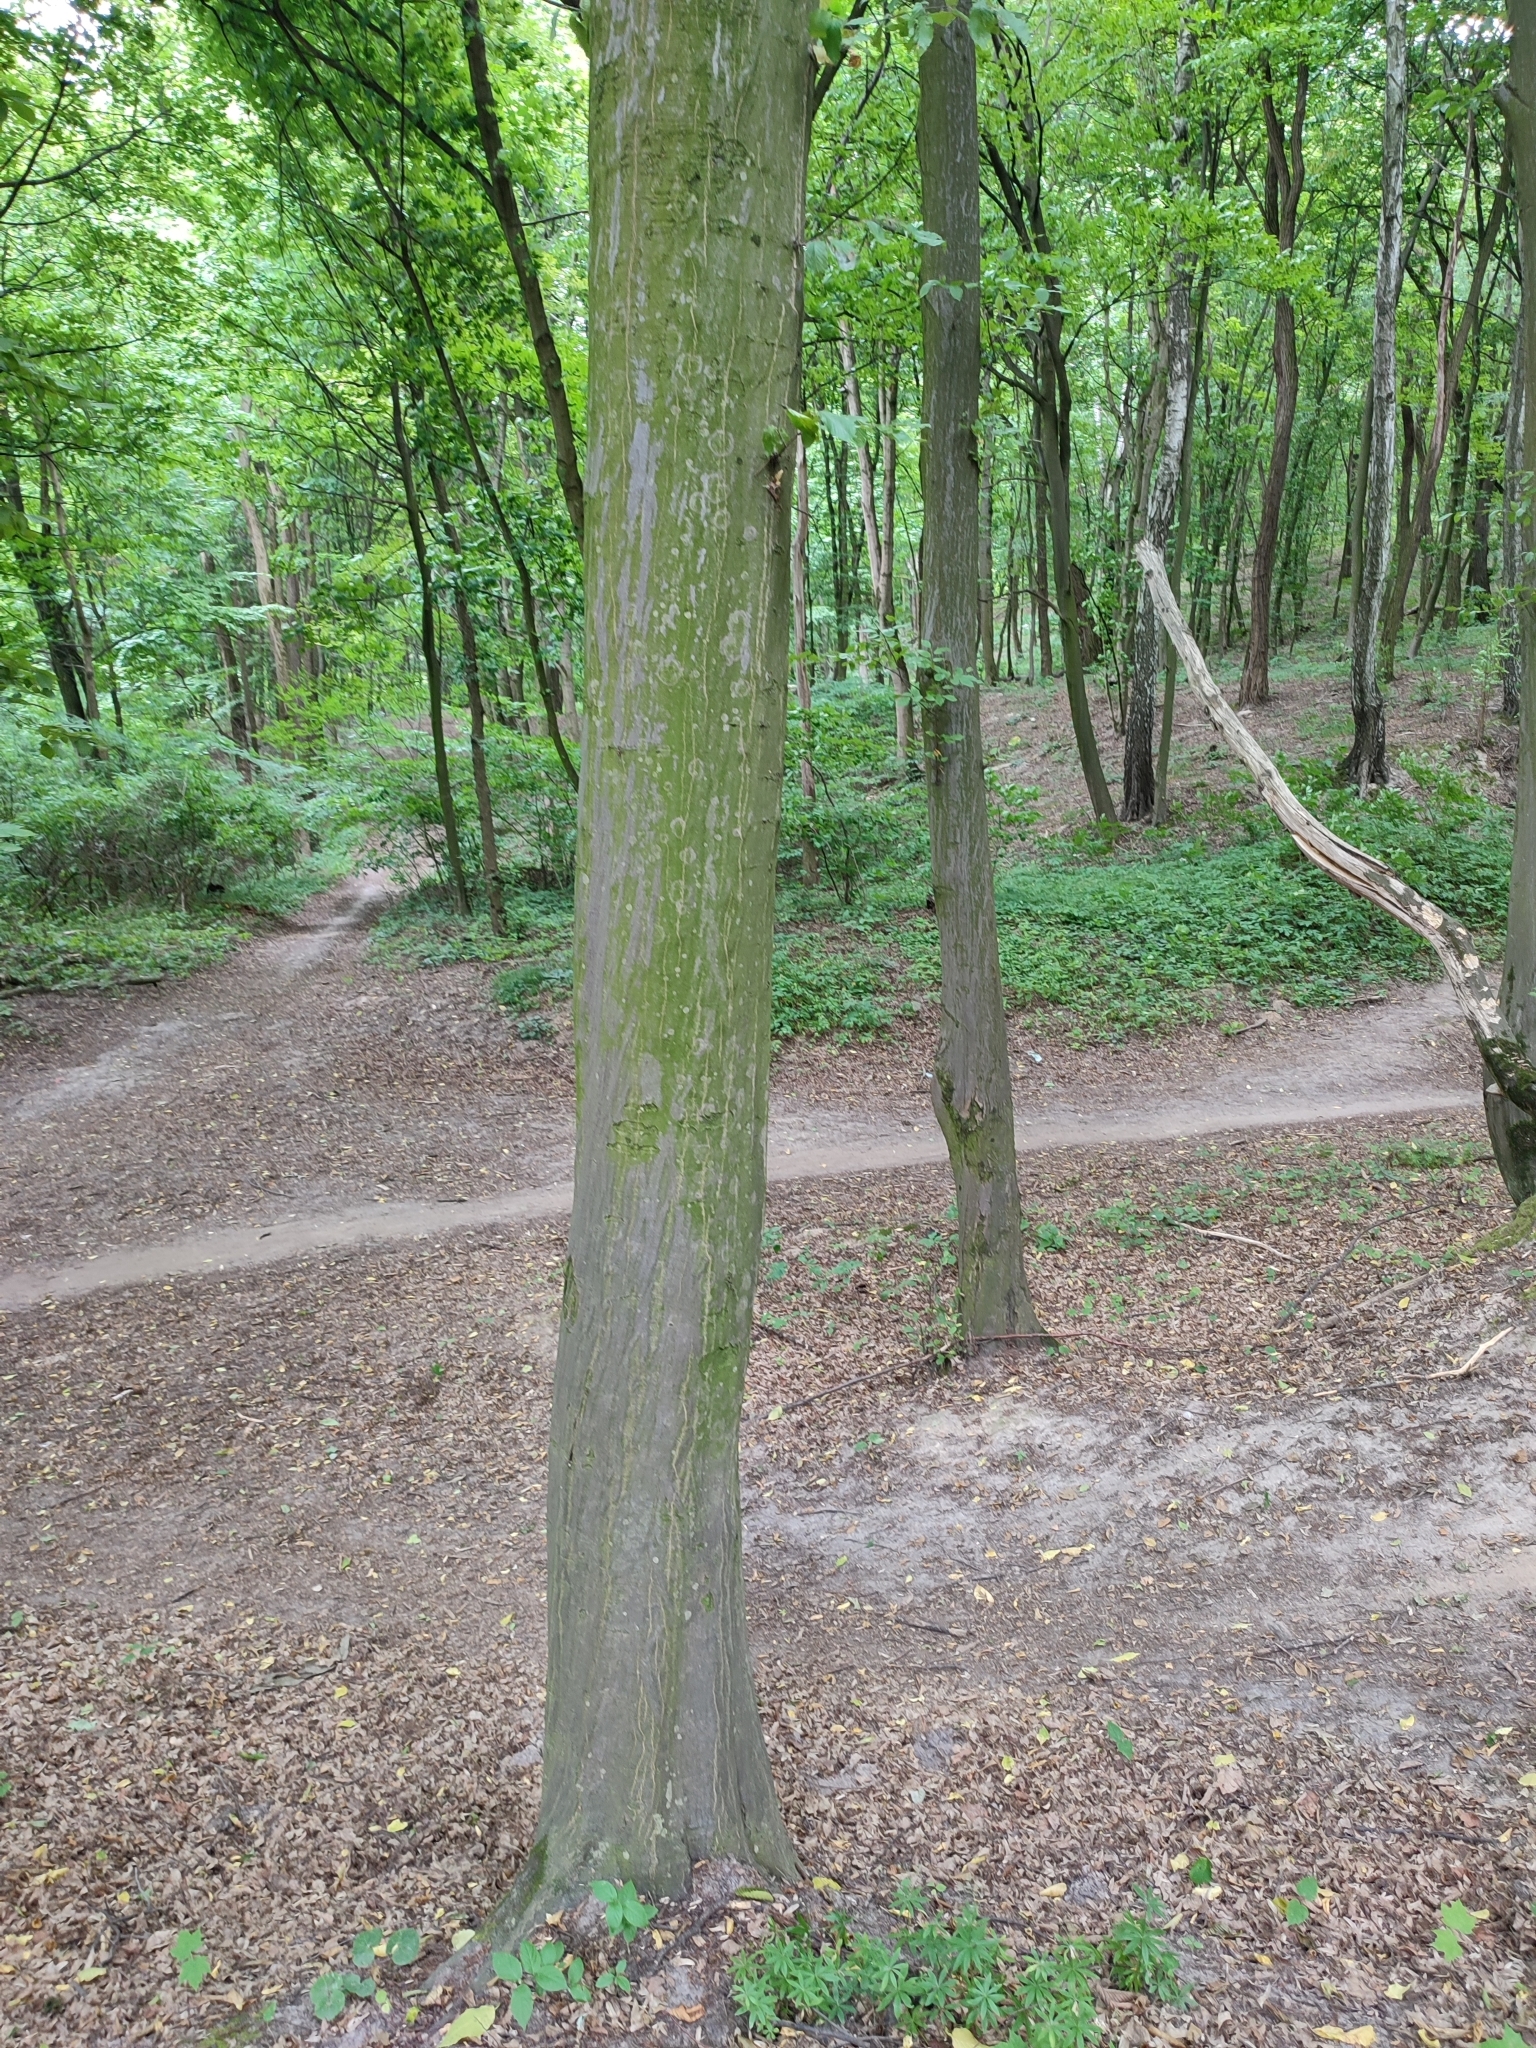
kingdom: Plantae
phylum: Tracheophyta
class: Magnoliopsida
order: Fagales
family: Betulaceae
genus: Carpinus
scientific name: Carpinus betulus
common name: Hornbeam
